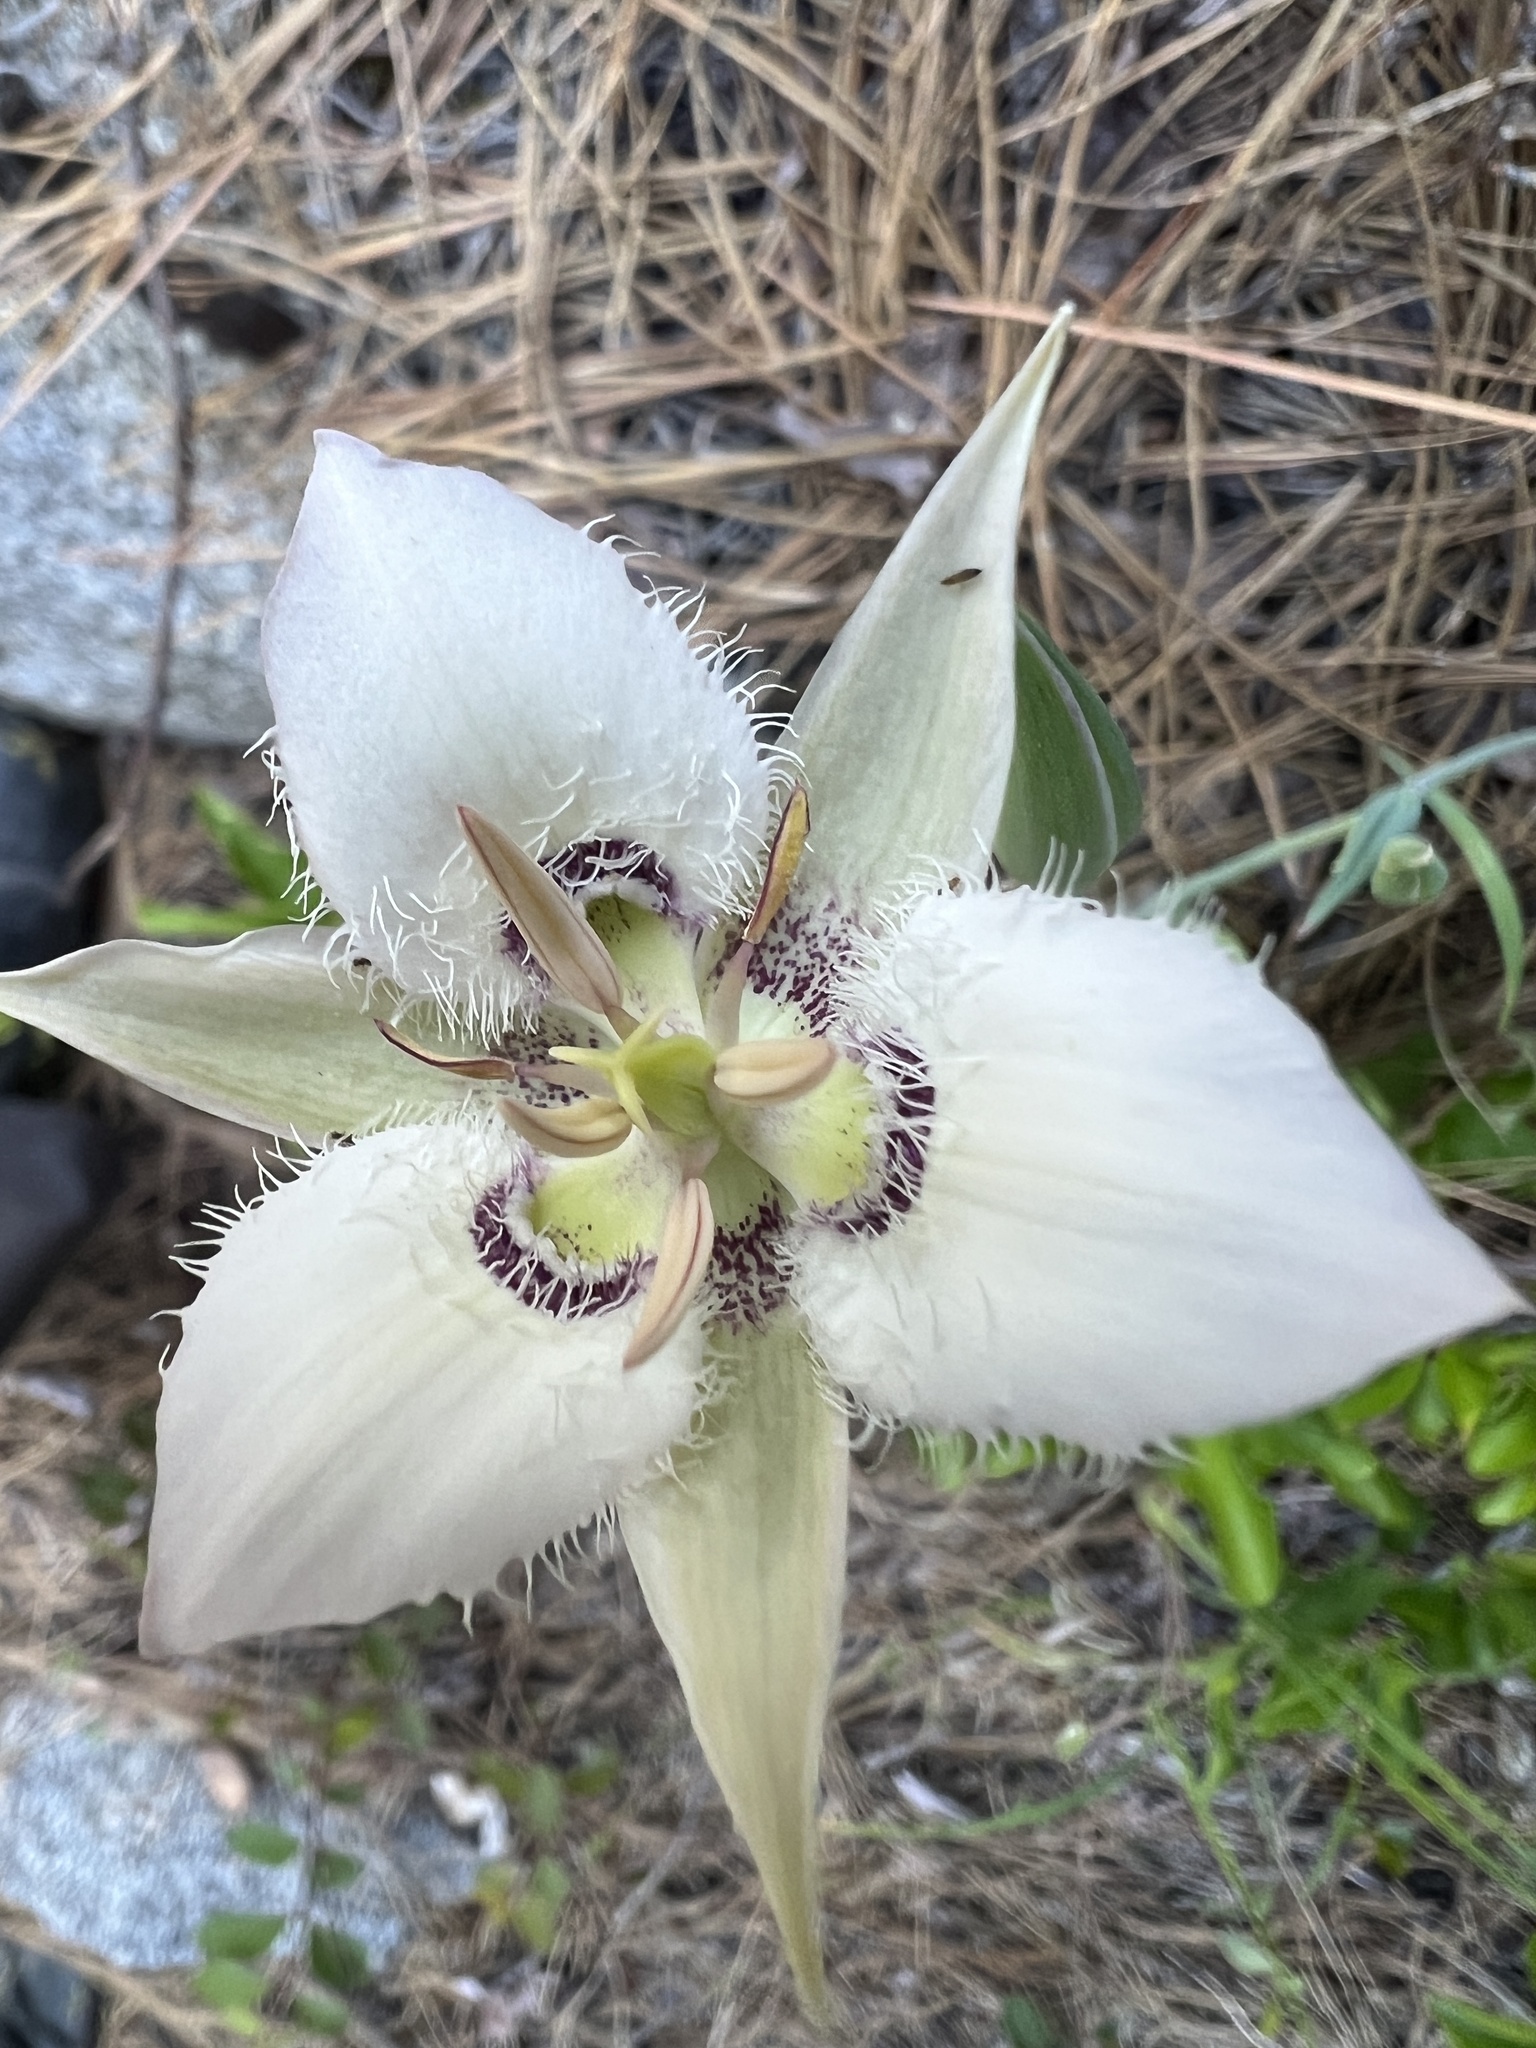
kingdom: Plantae
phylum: Tracheophyta
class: Liliopsida
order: Liliales
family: Liliaceae
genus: Calochortus
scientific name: Calochortus lyallii
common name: Lyall's mariposa lily
